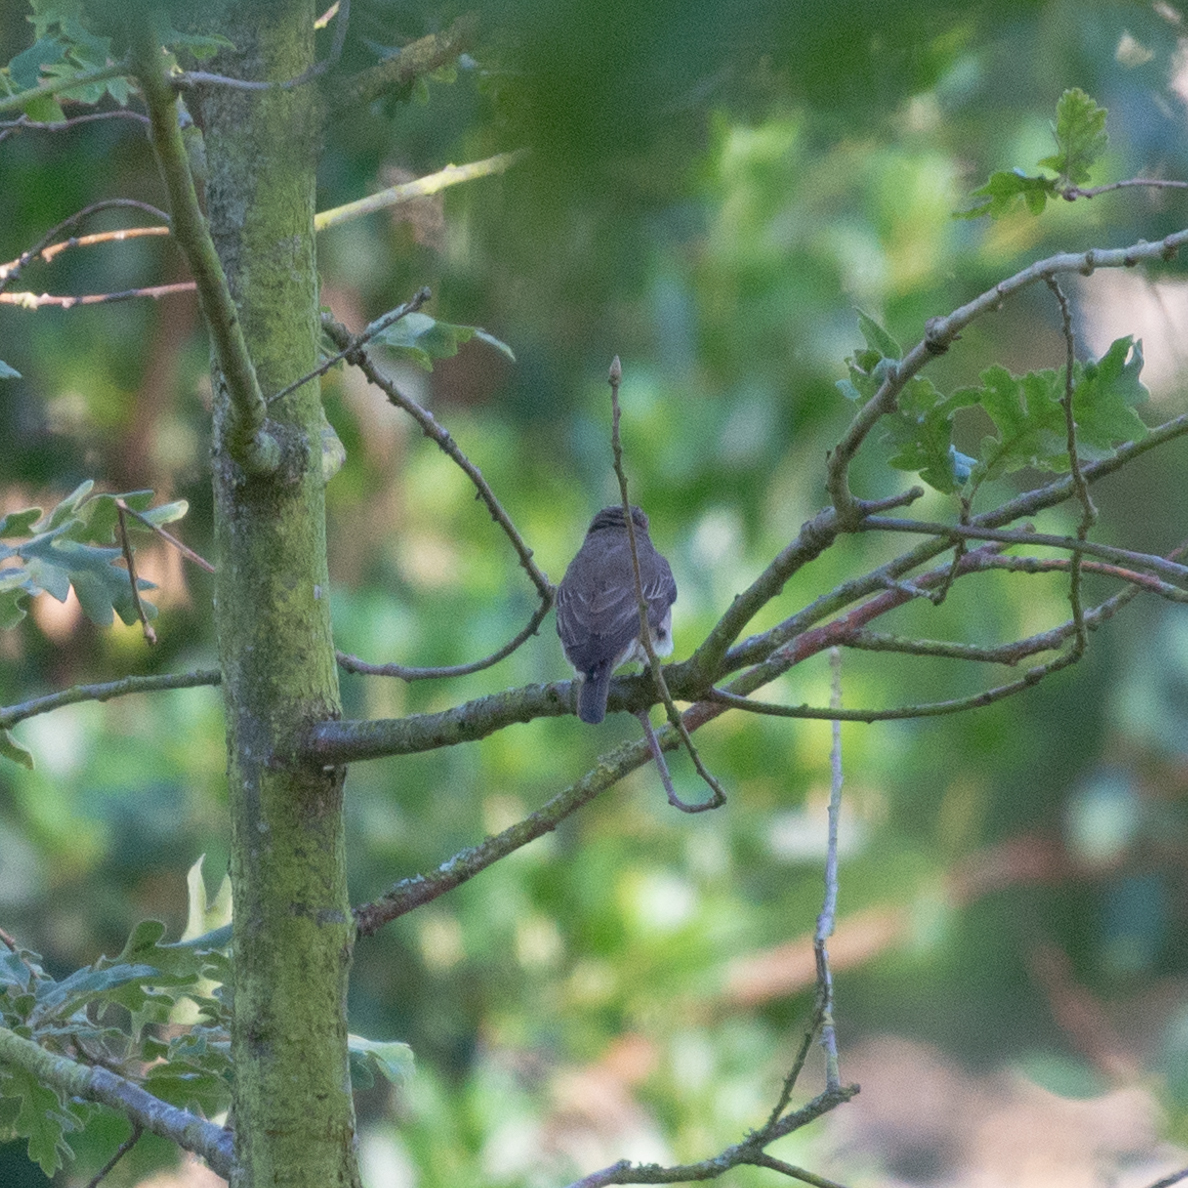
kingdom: Animalia
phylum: Chordata
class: Aves
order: Passeriformes
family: Muscicapidae
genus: Muscicapa
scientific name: Muscicapa striata
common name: Spotted flycatcher
